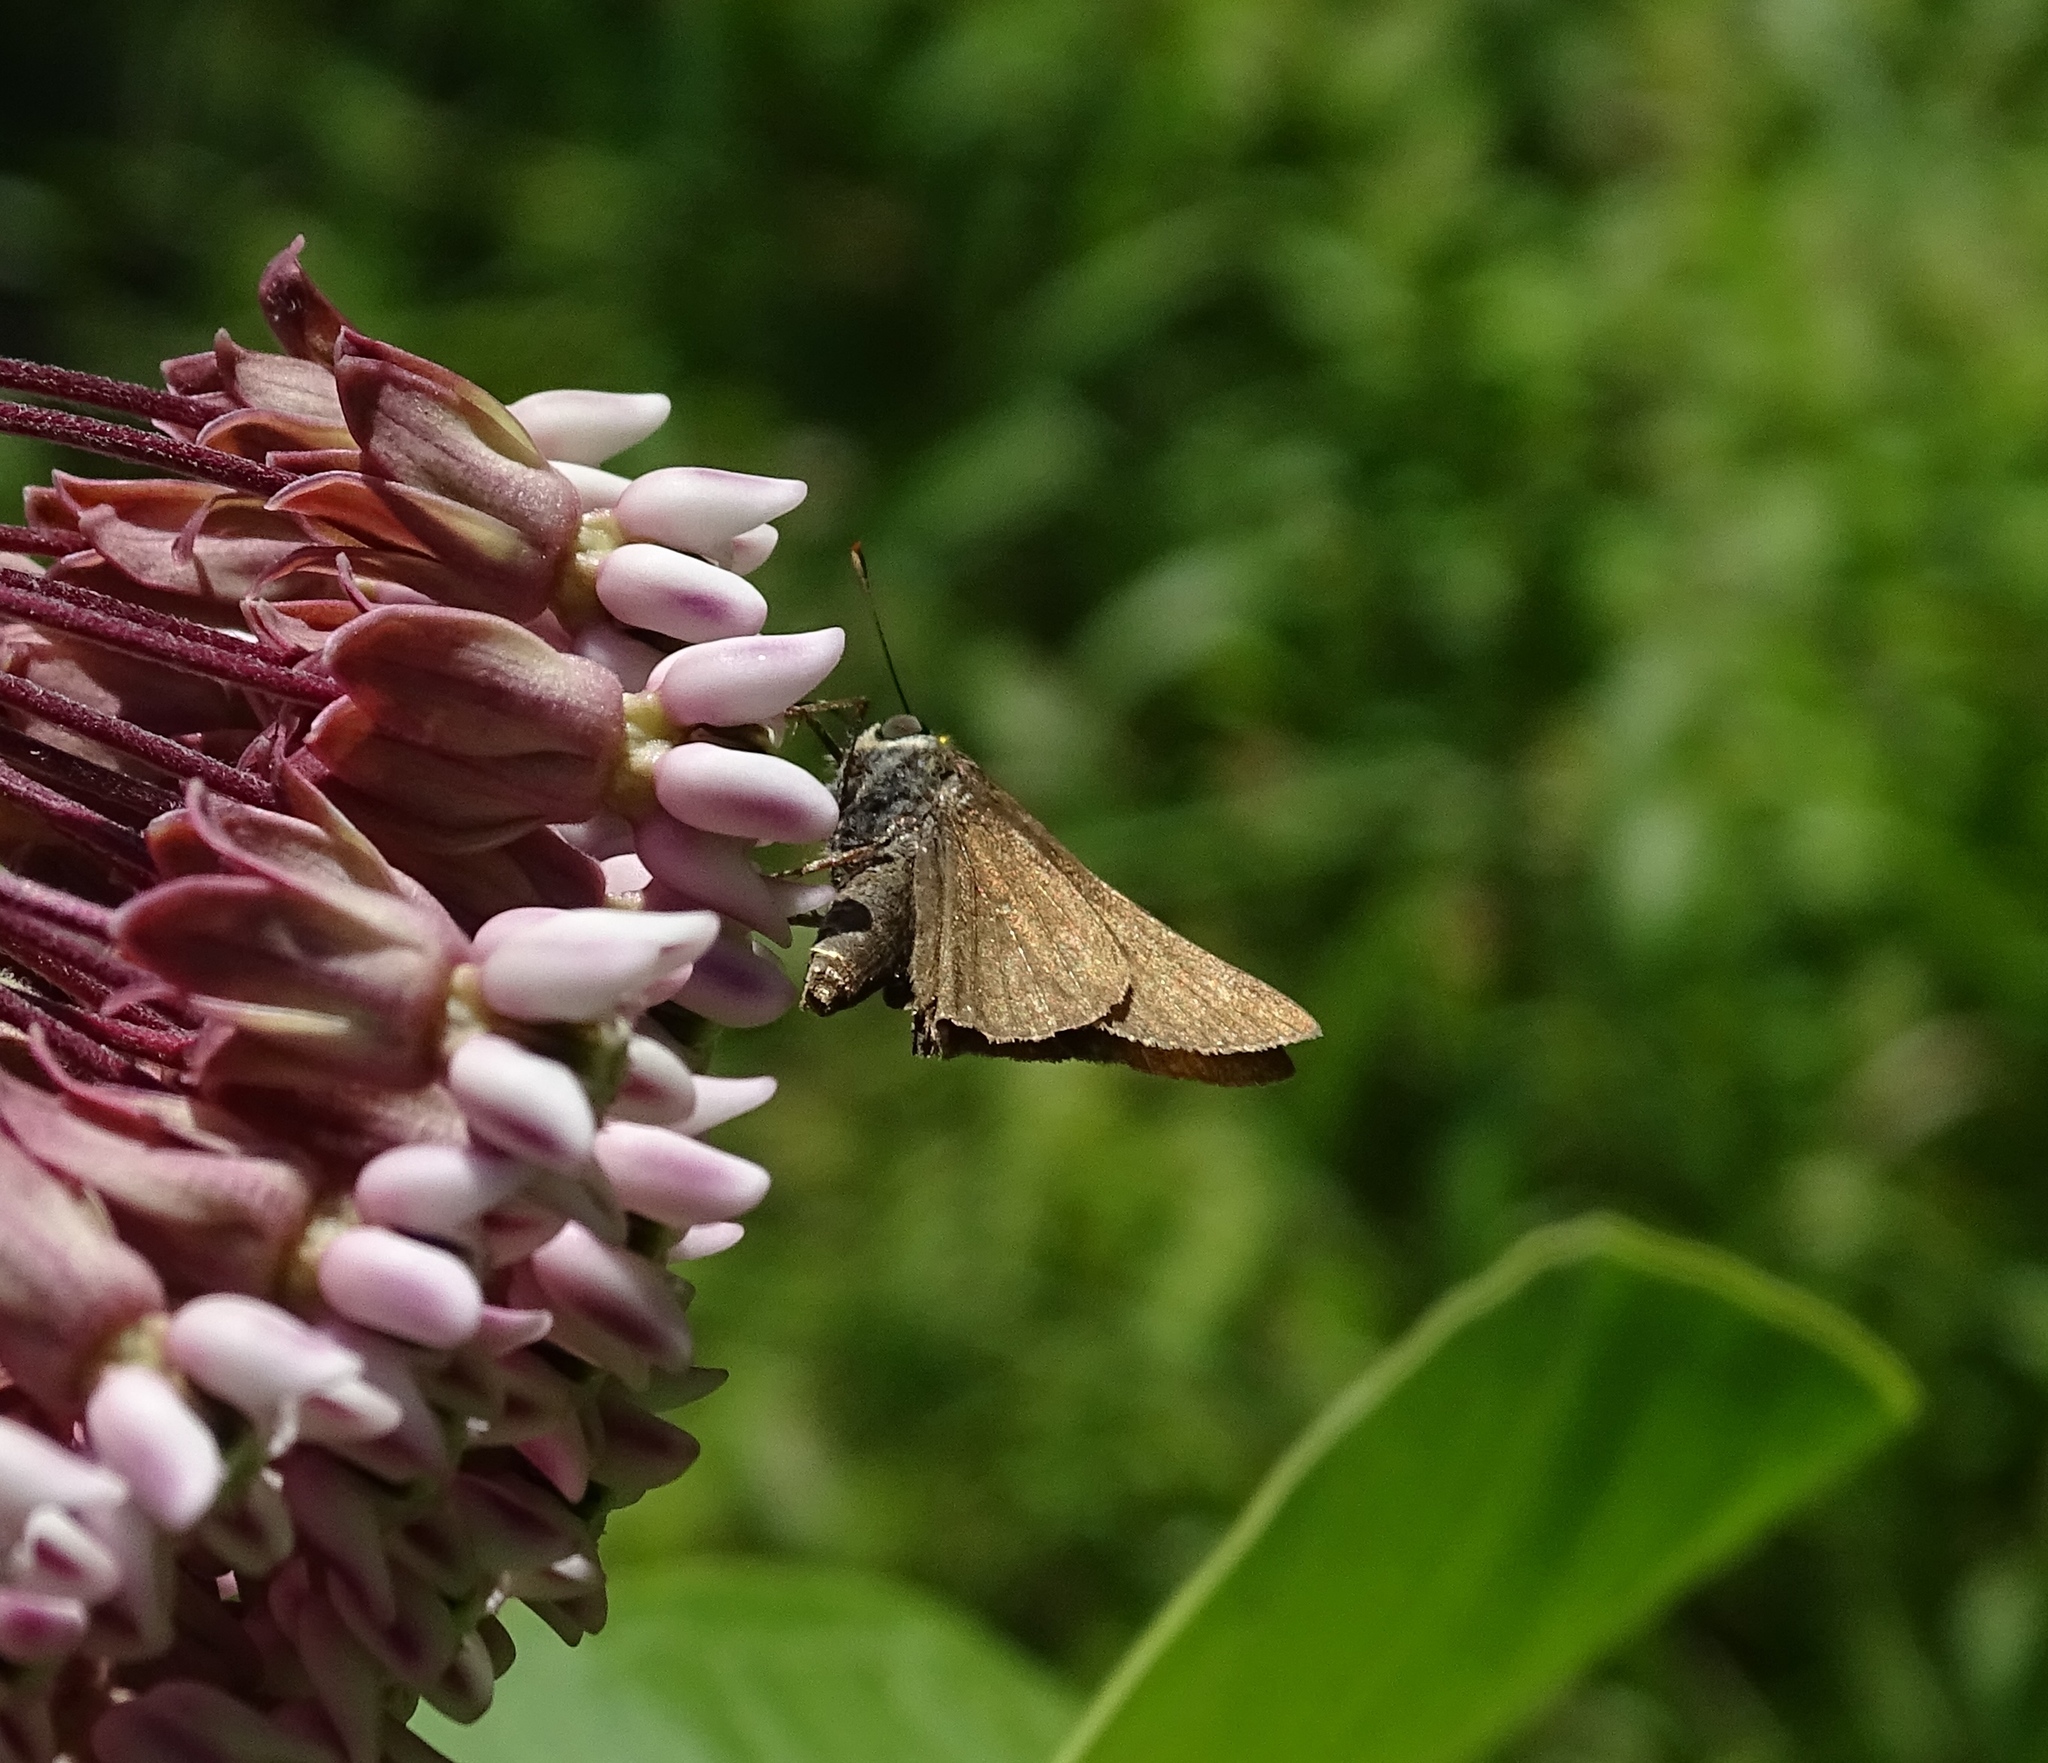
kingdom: Animalia
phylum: Arthropoda
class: Insecta
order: Lepidoptera
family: Hesperiidae
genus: Euphyes
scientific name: Euphyes vestris
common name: Dun skipper
